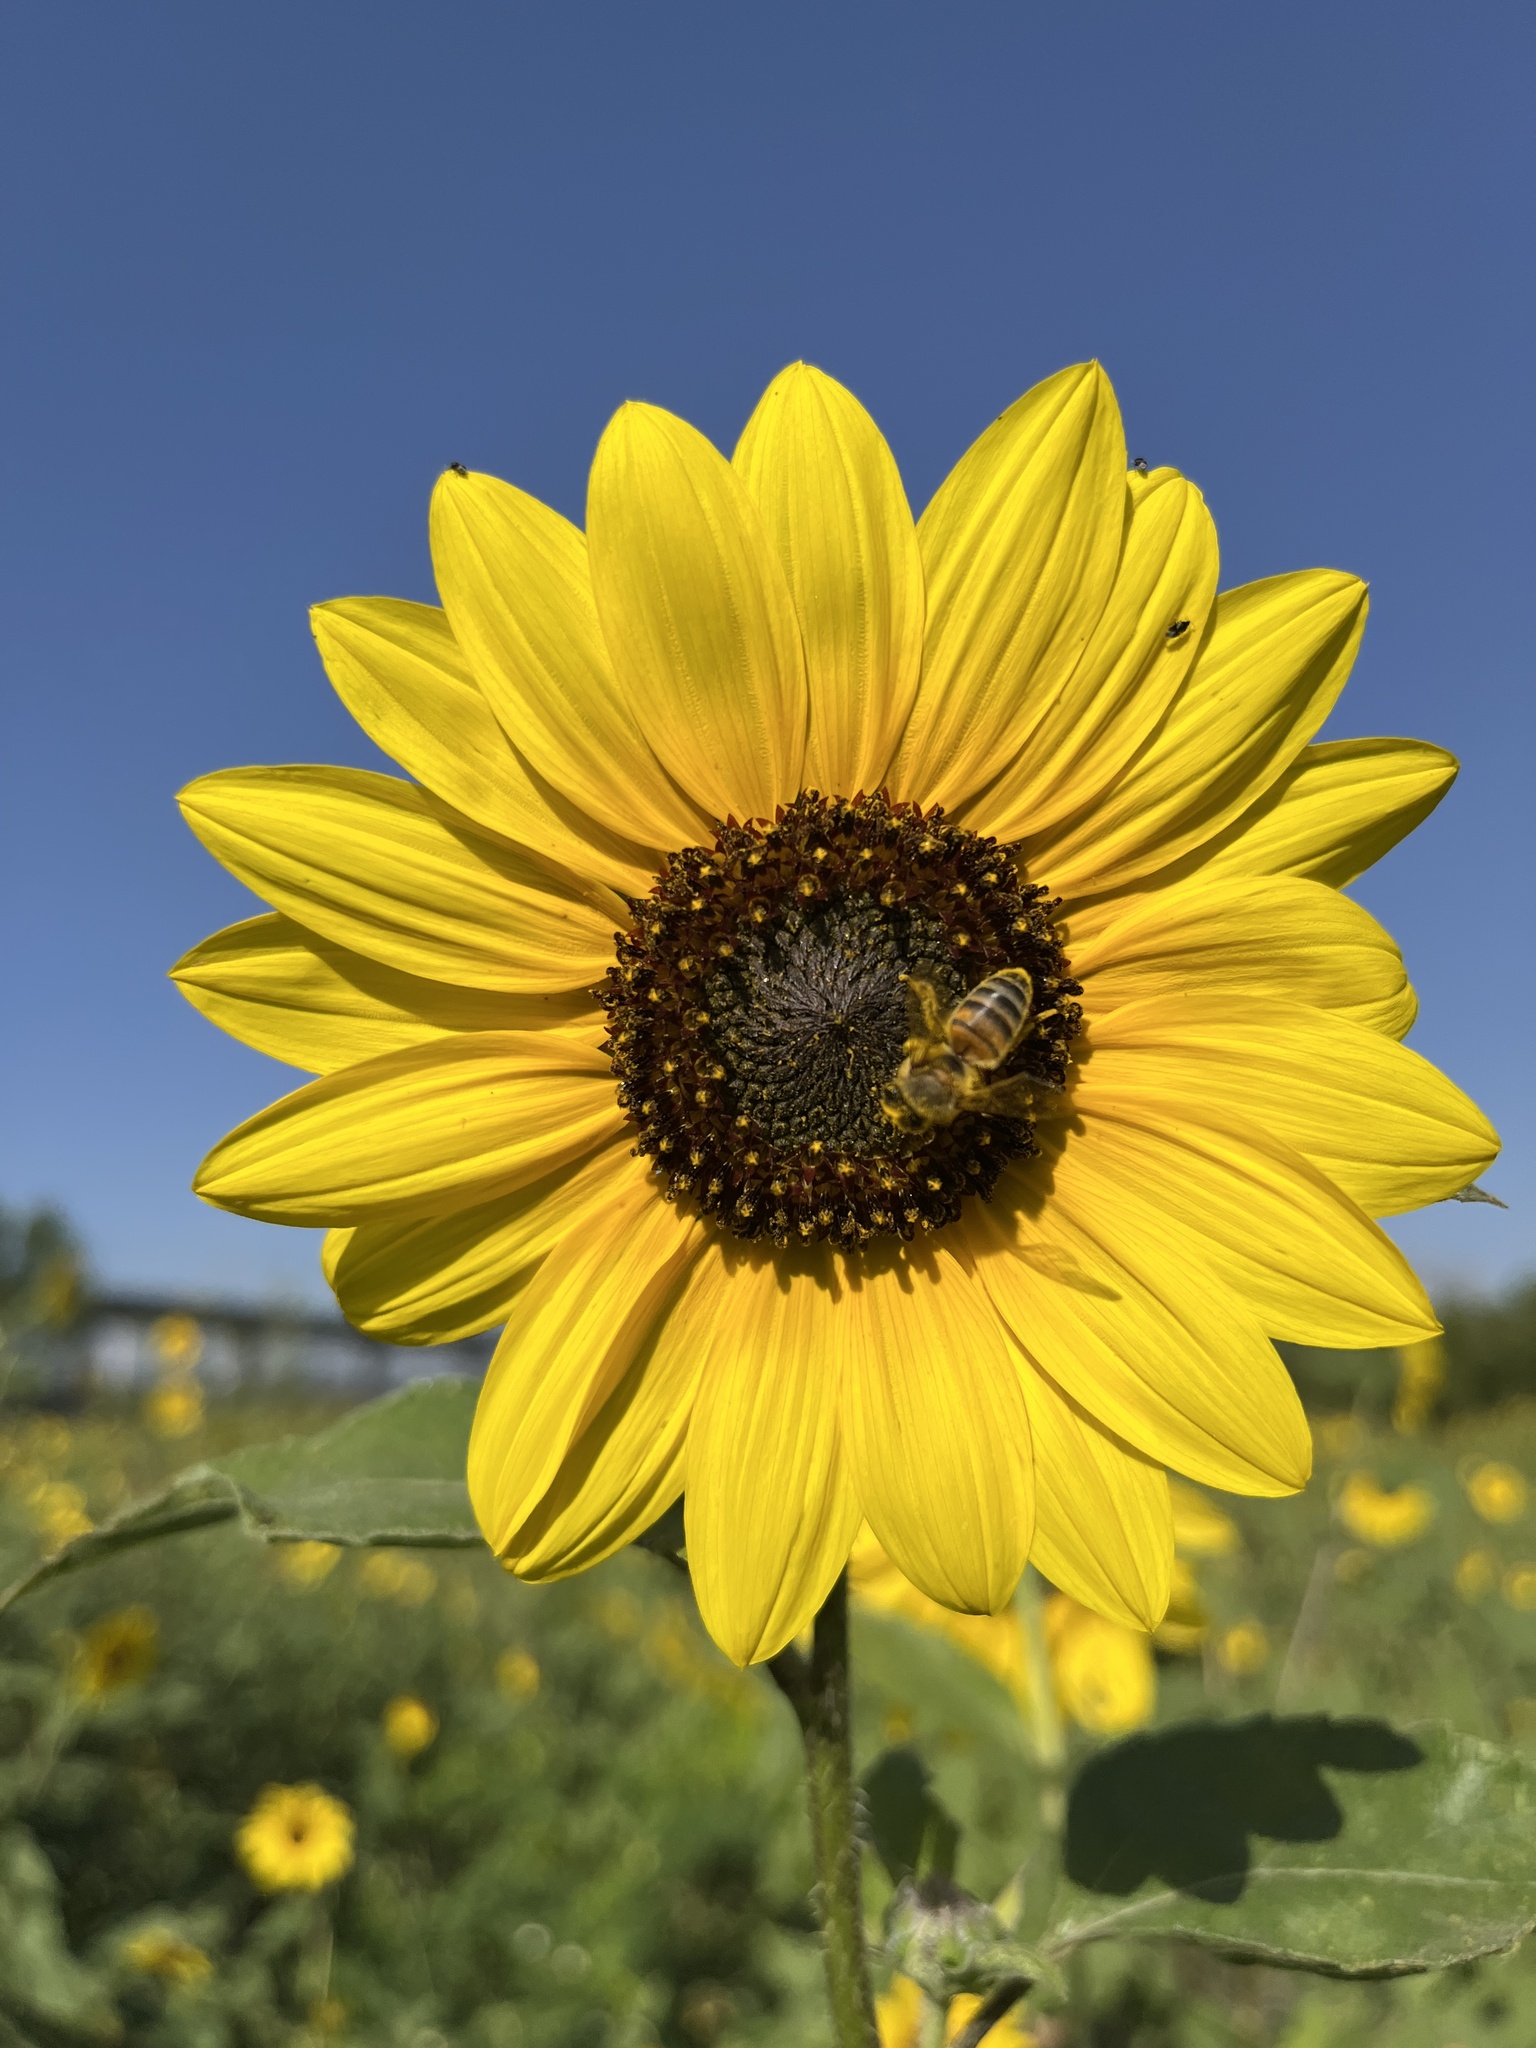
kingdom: Plantae
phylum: Tracheophyta
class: Magnoliopsida
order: Asterales
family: Asteraceae
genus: Helianthus
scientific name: Helianthus annuus
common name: Sunflower
